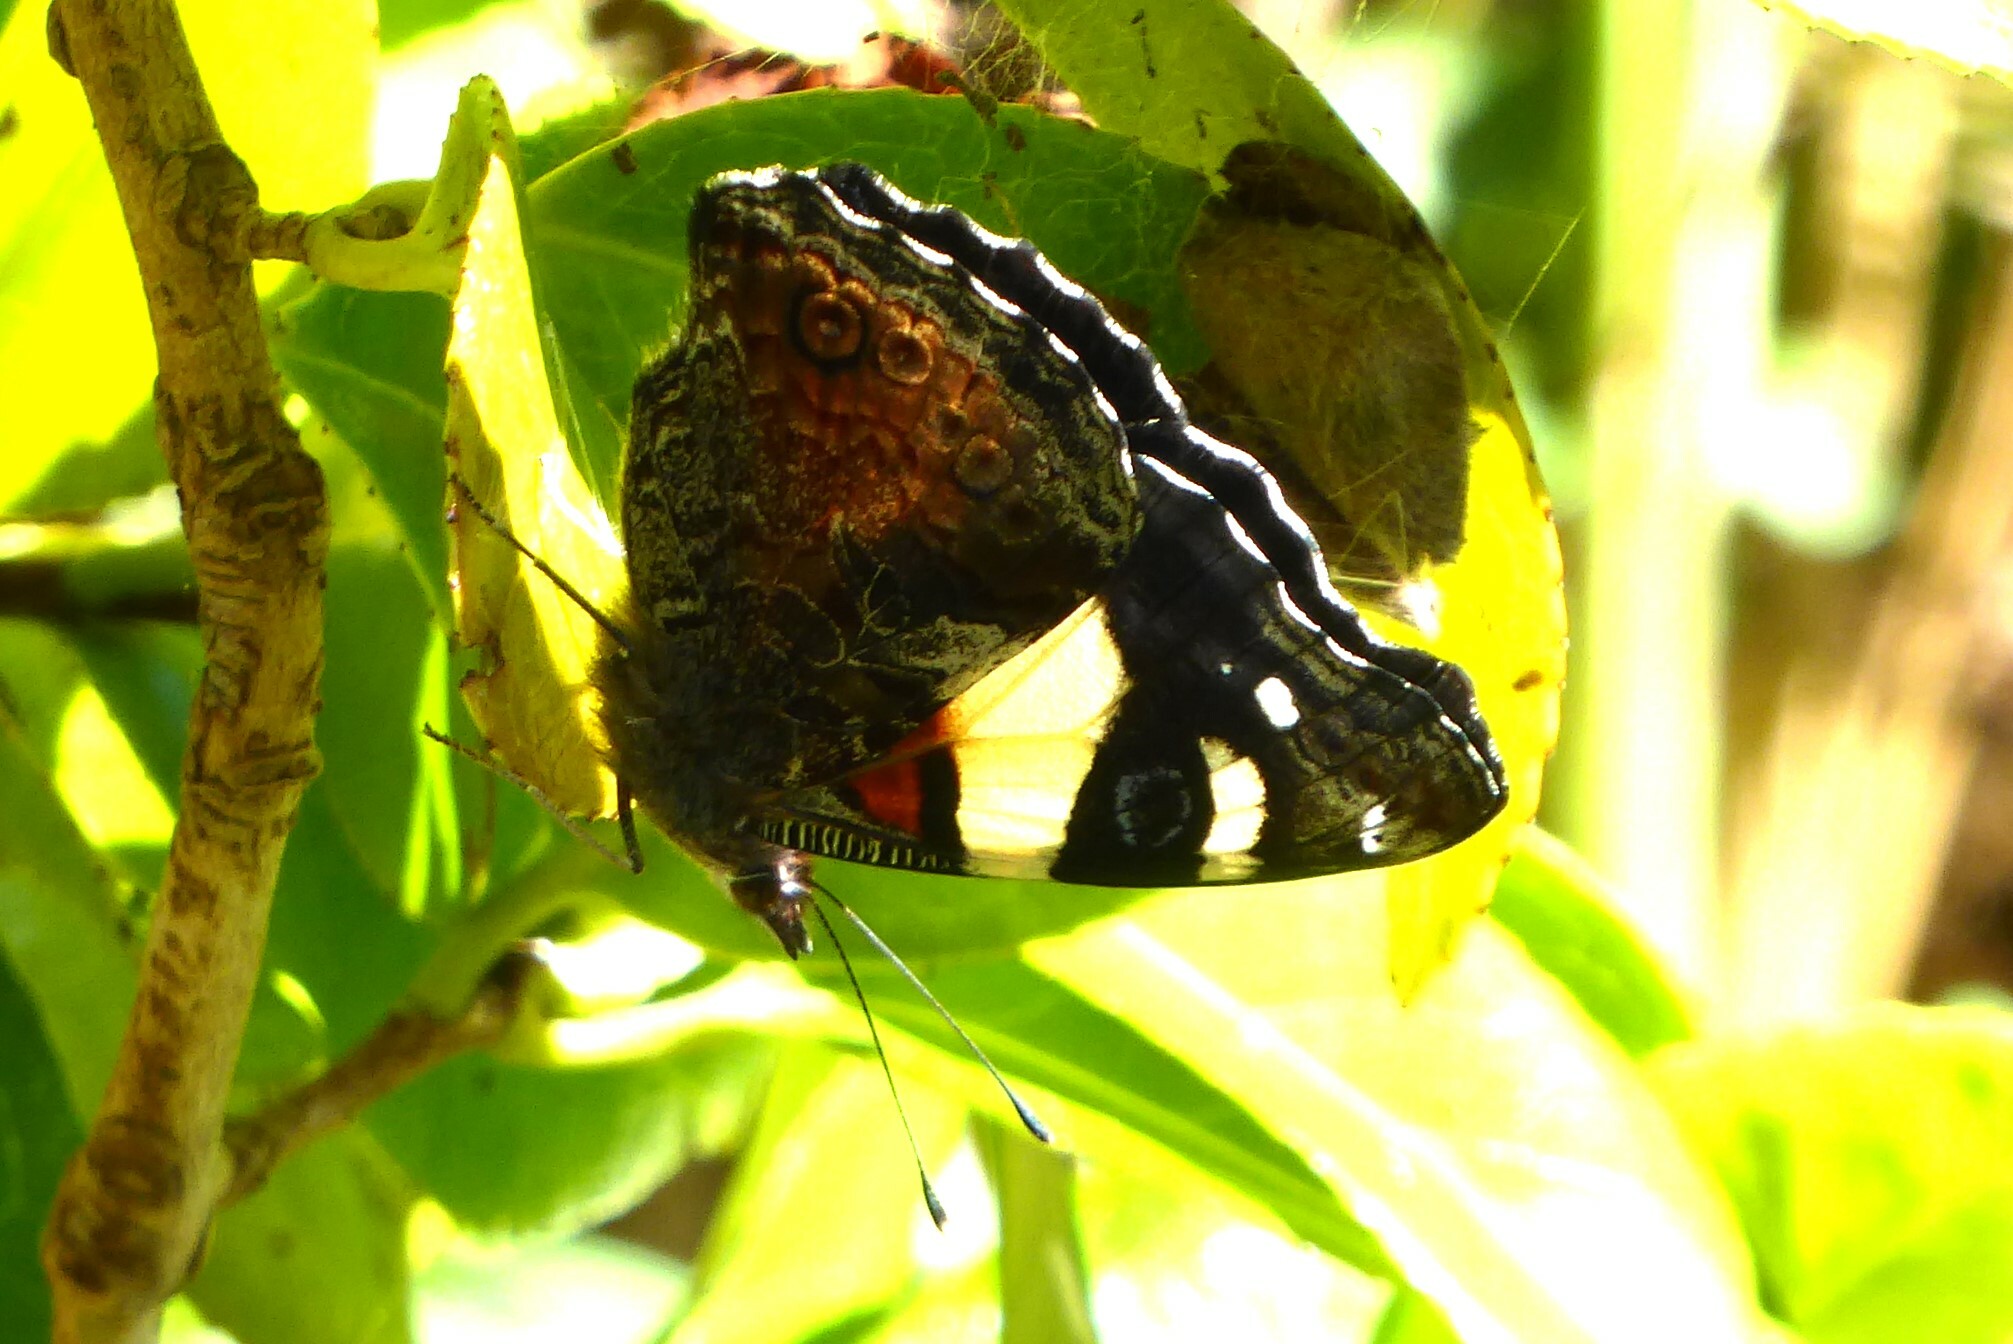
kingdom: Animalia
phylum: Arthropoda
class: Insecta
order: Lepidoptera
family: Nymphalidae
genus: Vanessa
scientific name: Vanessa itea
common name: Yellow admiral
